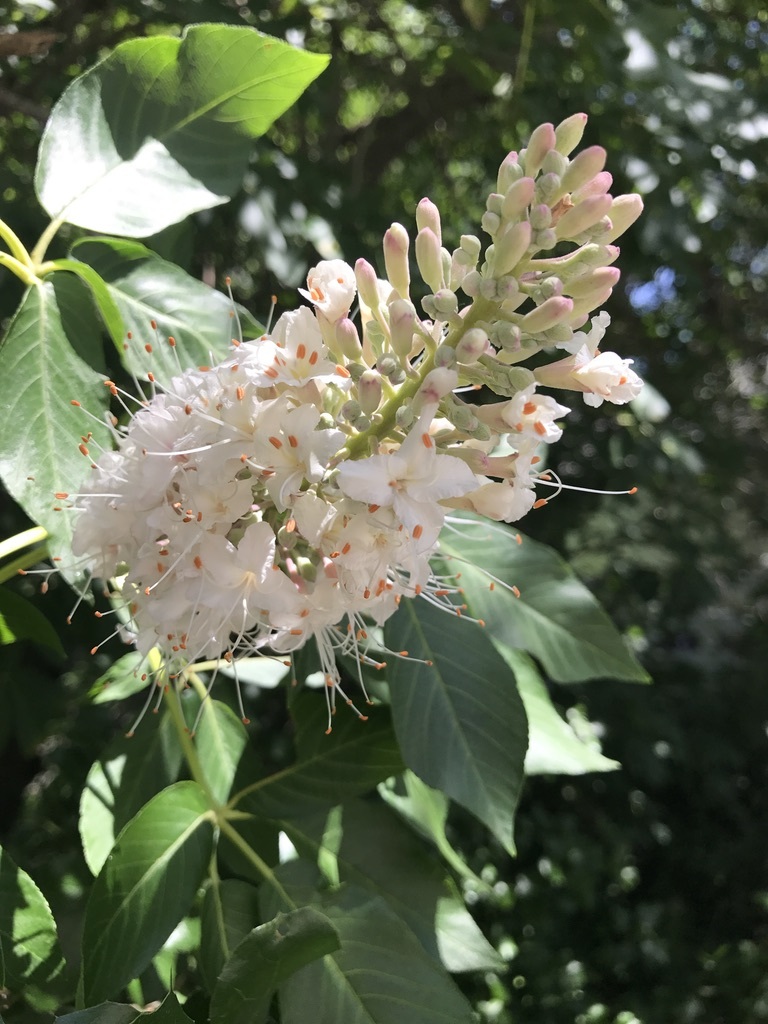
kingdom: Plantae
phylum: Tracheophyta
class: Magnoliopsida
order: Sapindales
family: Sapindaceae
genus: Aesculus
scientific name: Aesculus californica
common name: California buckeye
